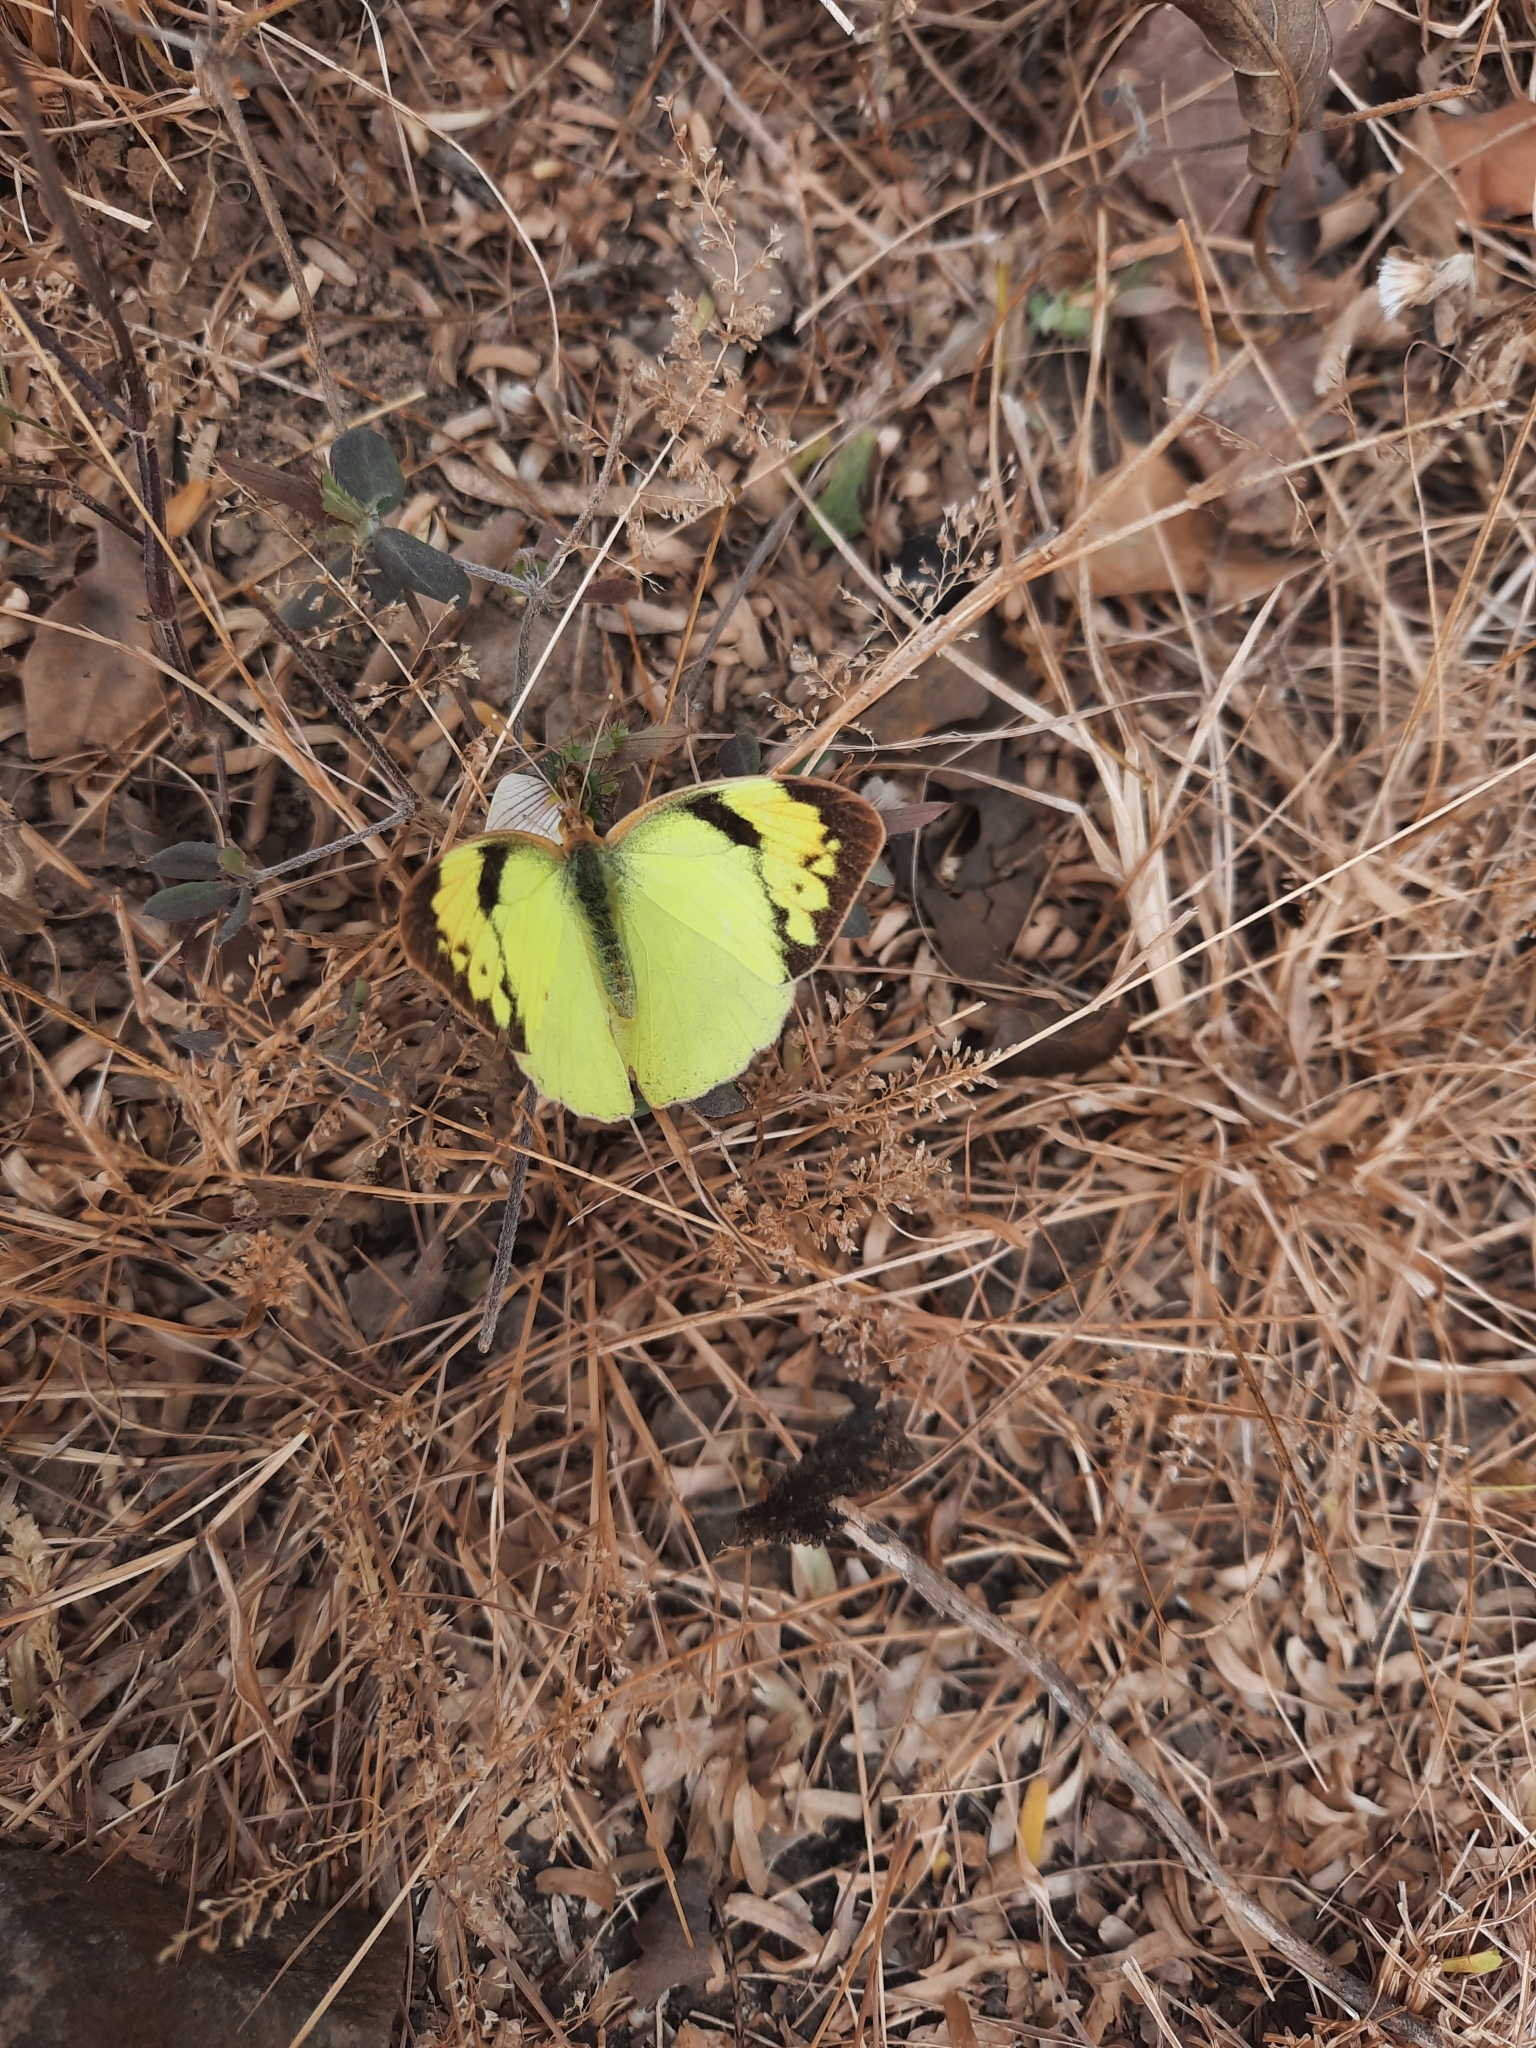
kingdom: Animalia
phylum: Arthropoda
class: Insecta
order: Lepidoptera
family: Pieridae
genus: Ixias
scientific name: Ixias pyrene
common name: Yellow orange tip
